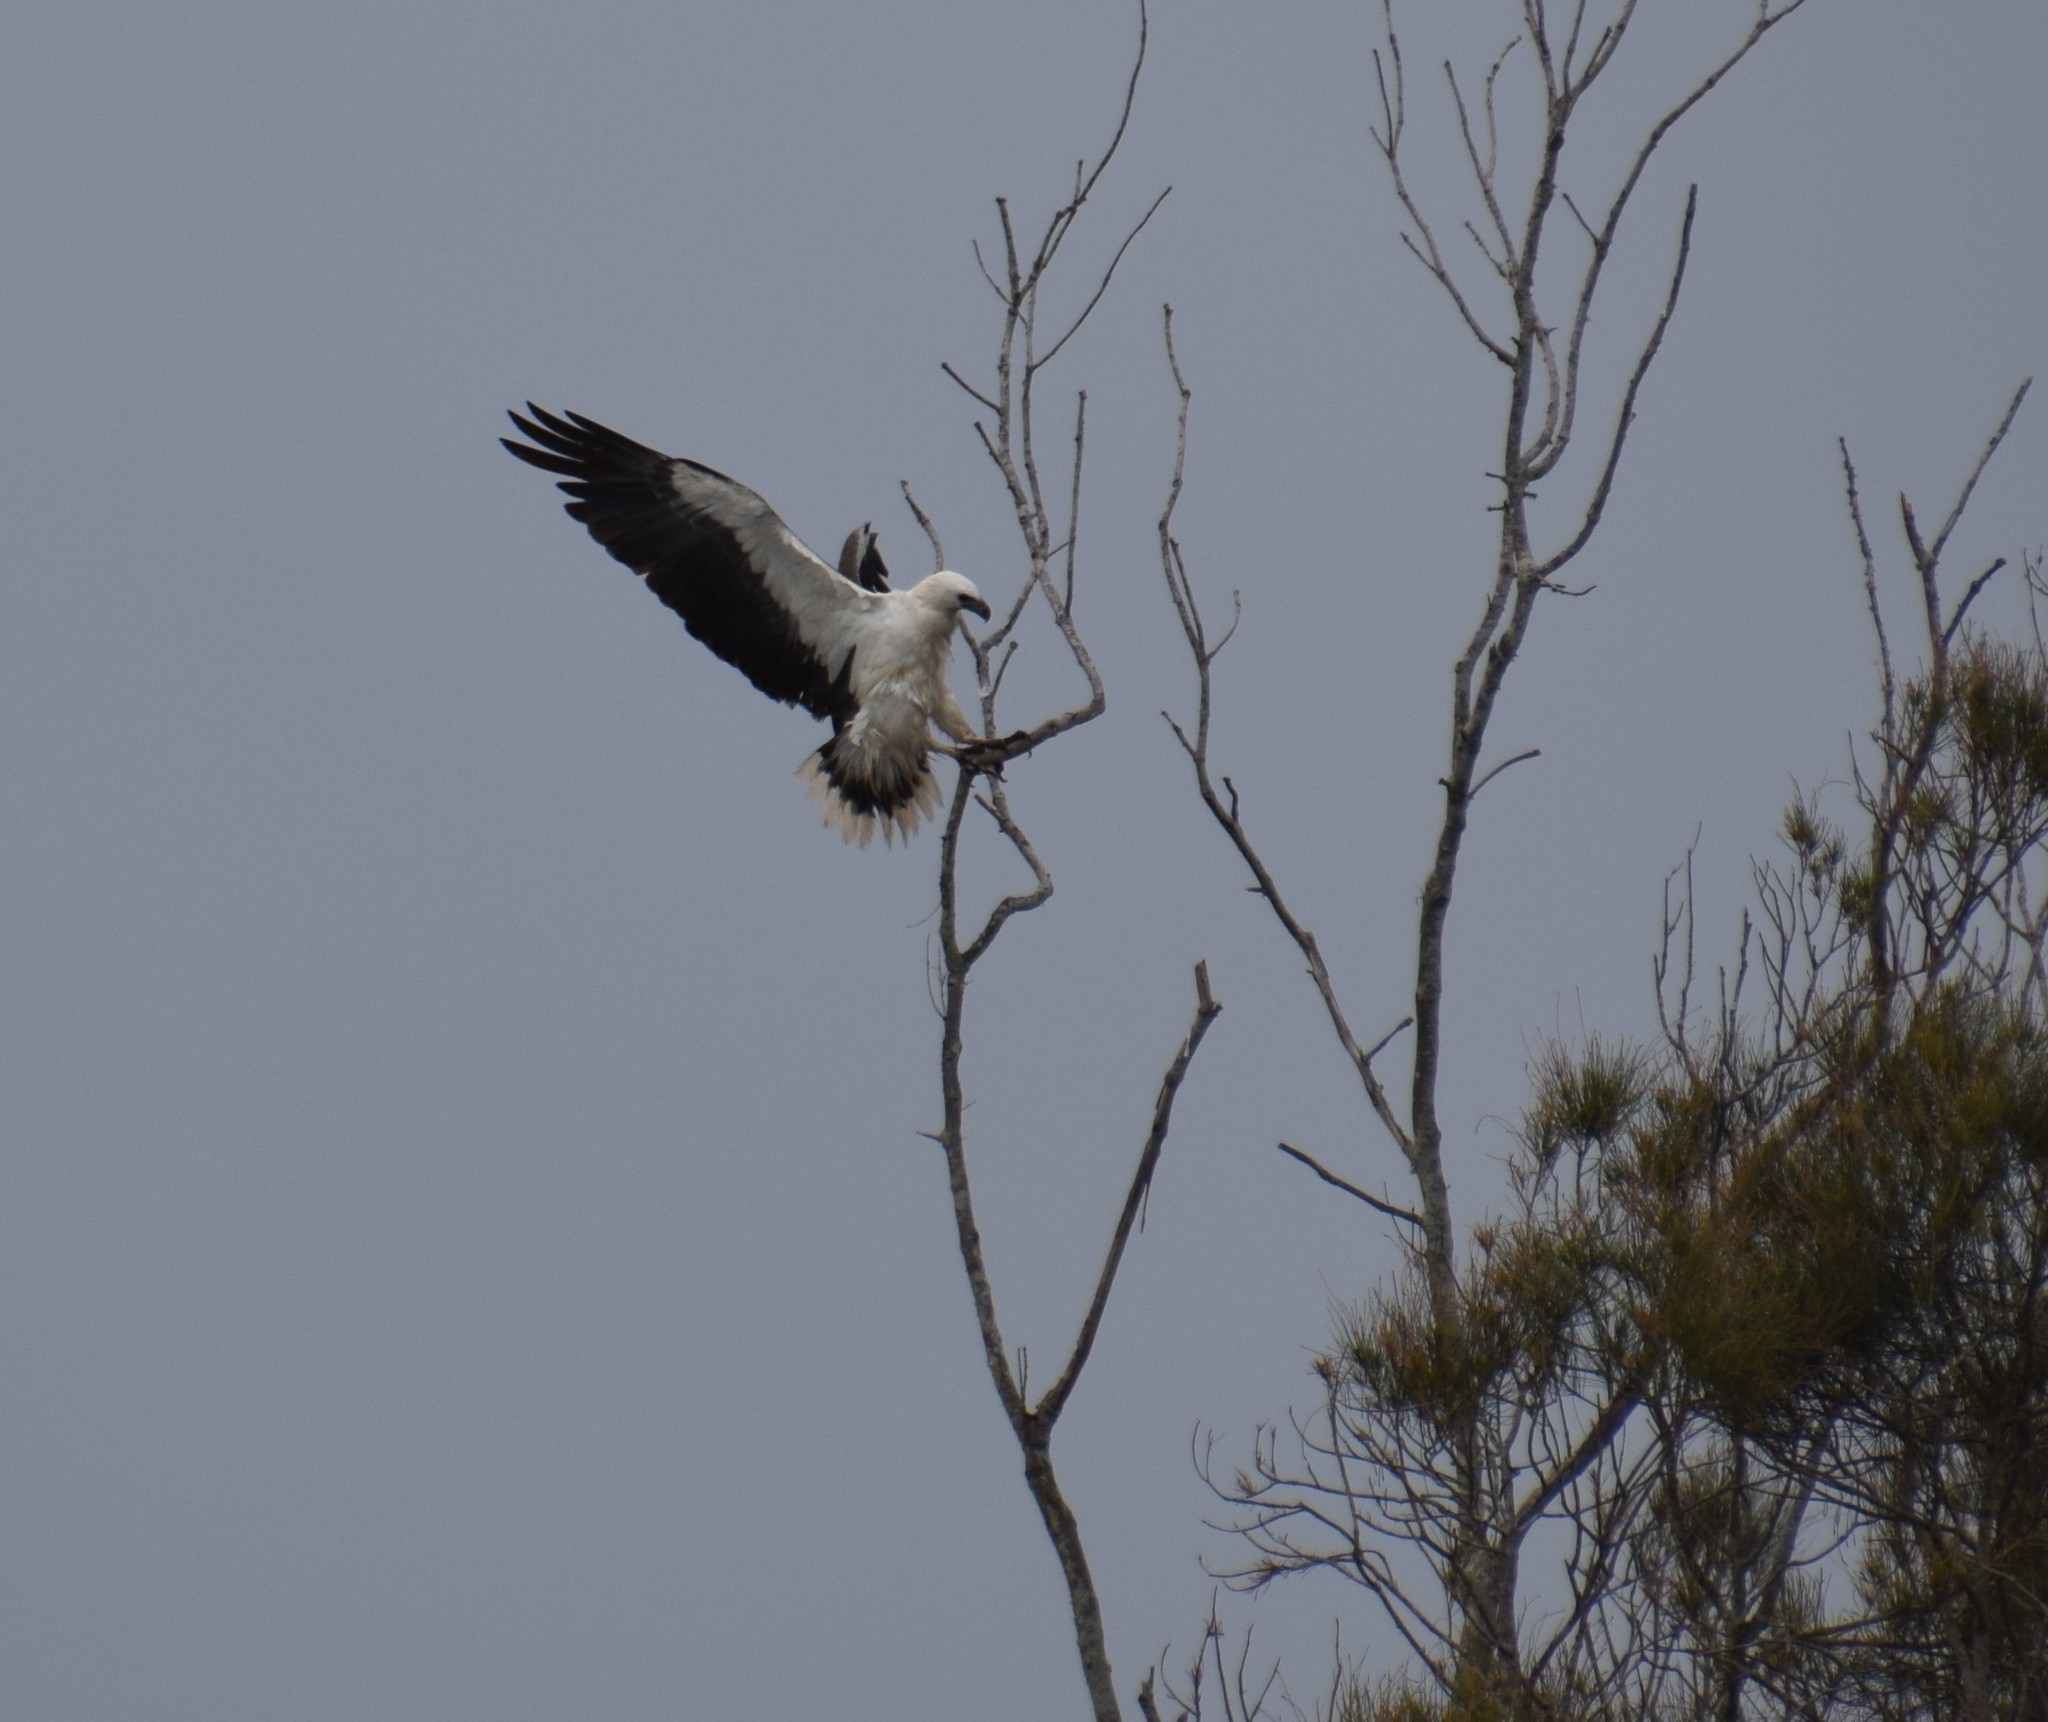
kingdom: Animalia
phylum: Chordata
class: Aves
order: Accipitriformes
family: Accipitridae
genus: Haliaeetus
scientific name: Haliaeetus leucogaster
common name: White-bellied sea eagle
